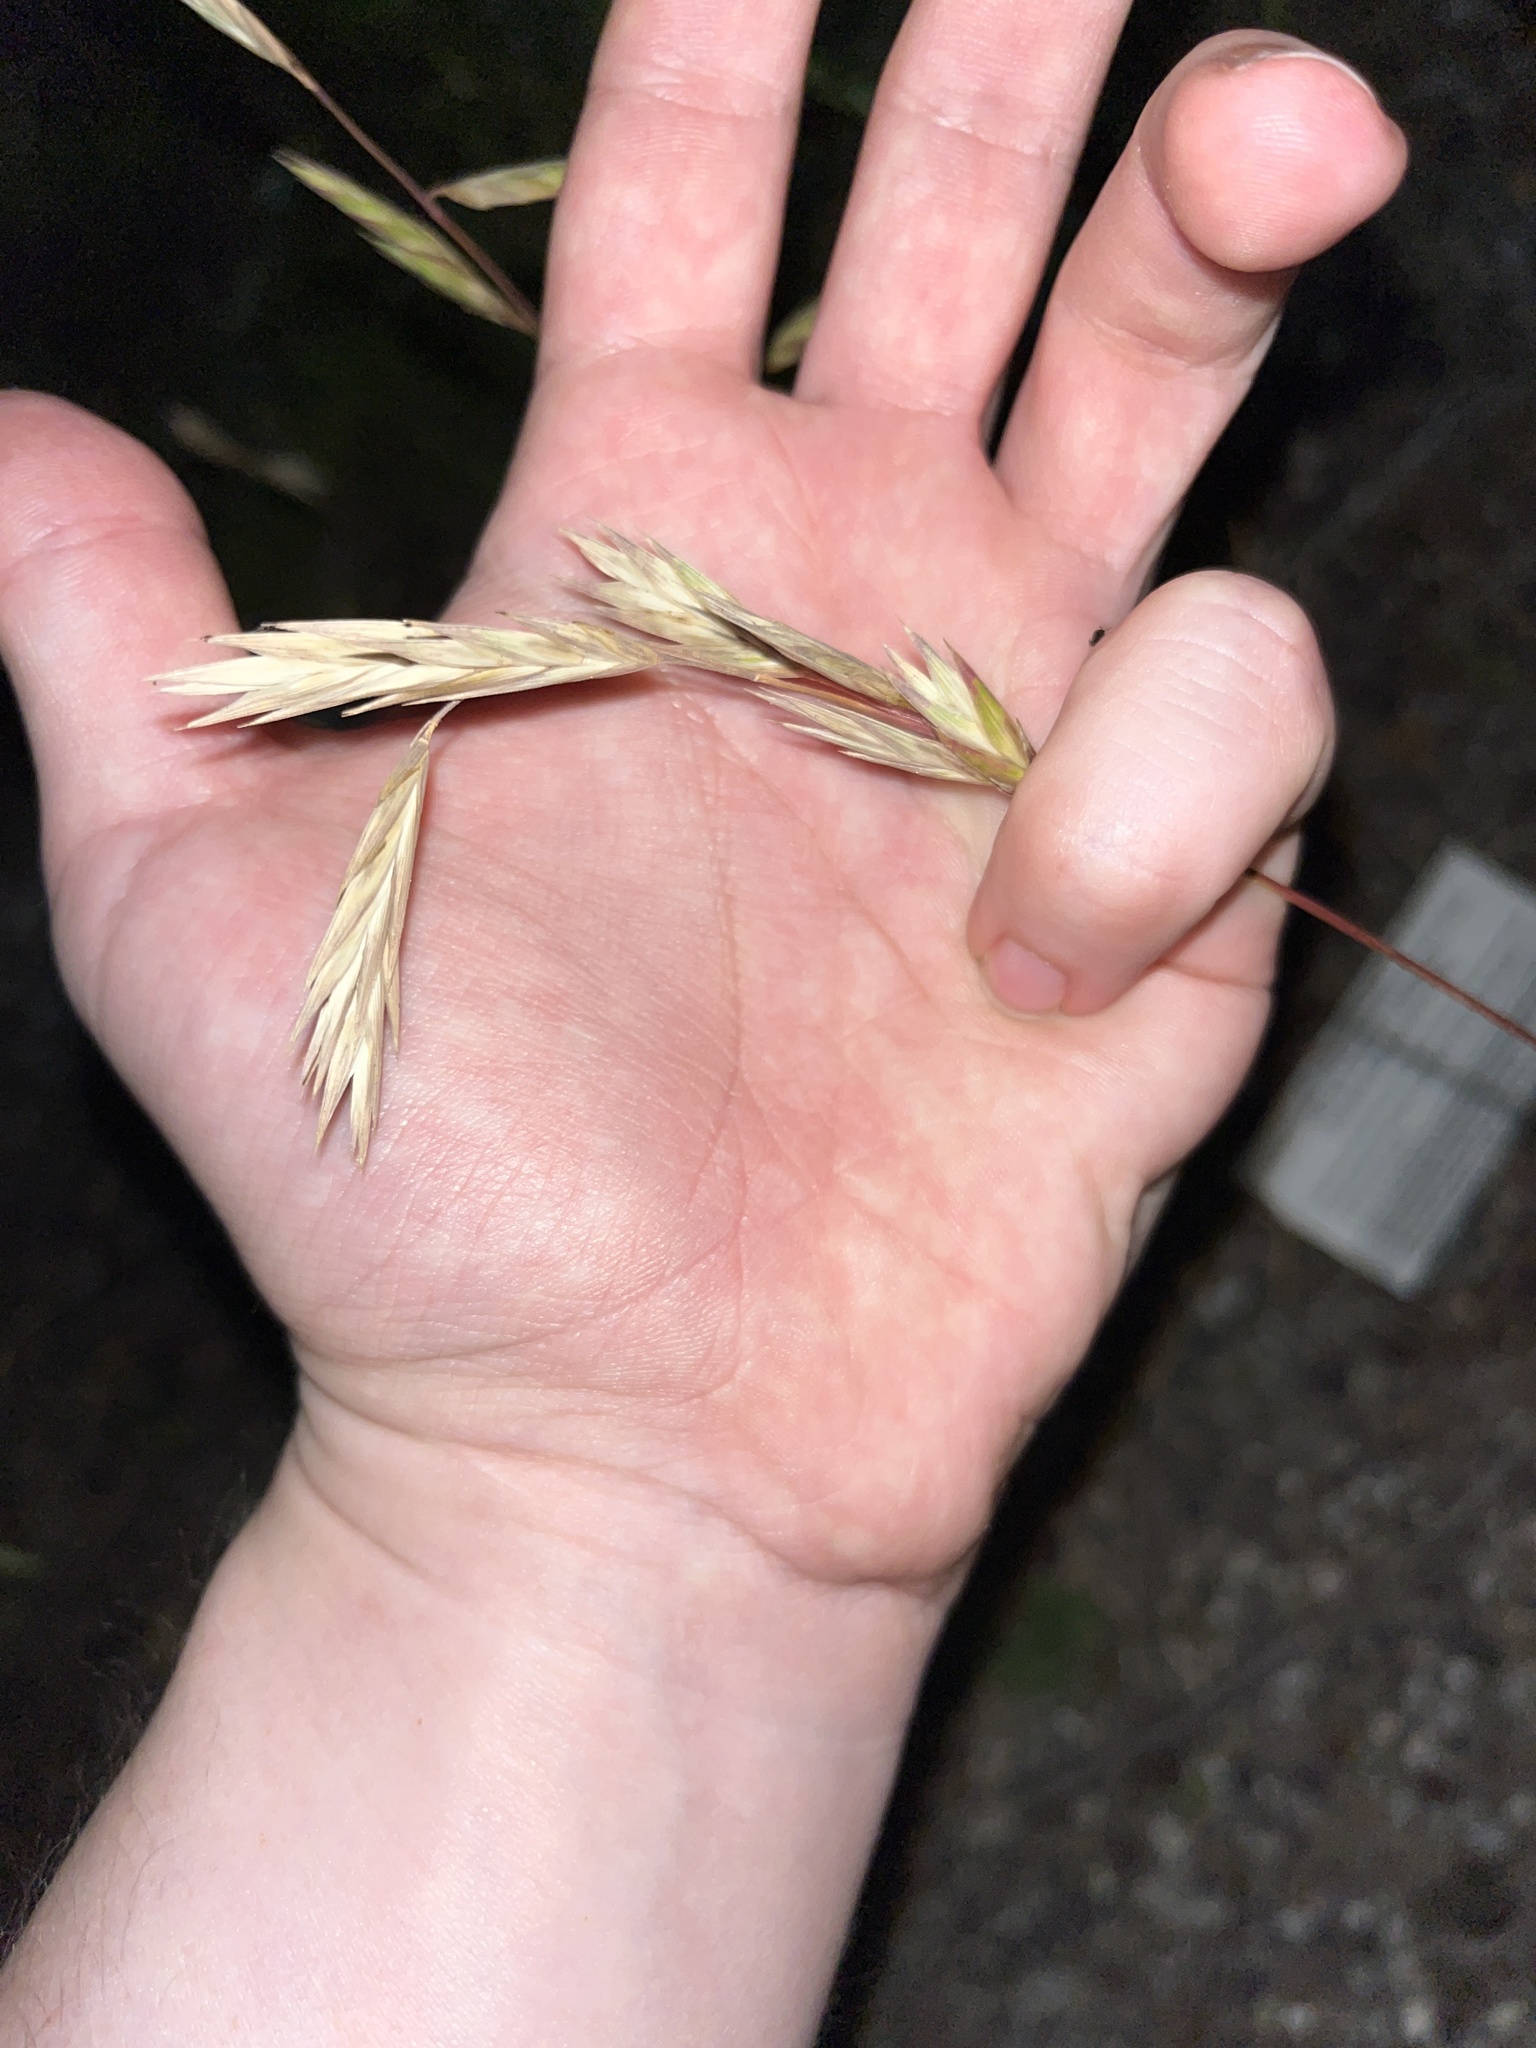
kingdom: Plantae
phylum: Tracheophyta
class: Liliopsida
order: Poales
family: Poaceae
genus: Bromus
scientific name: Bromus catharticus
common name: Rescuegrass
